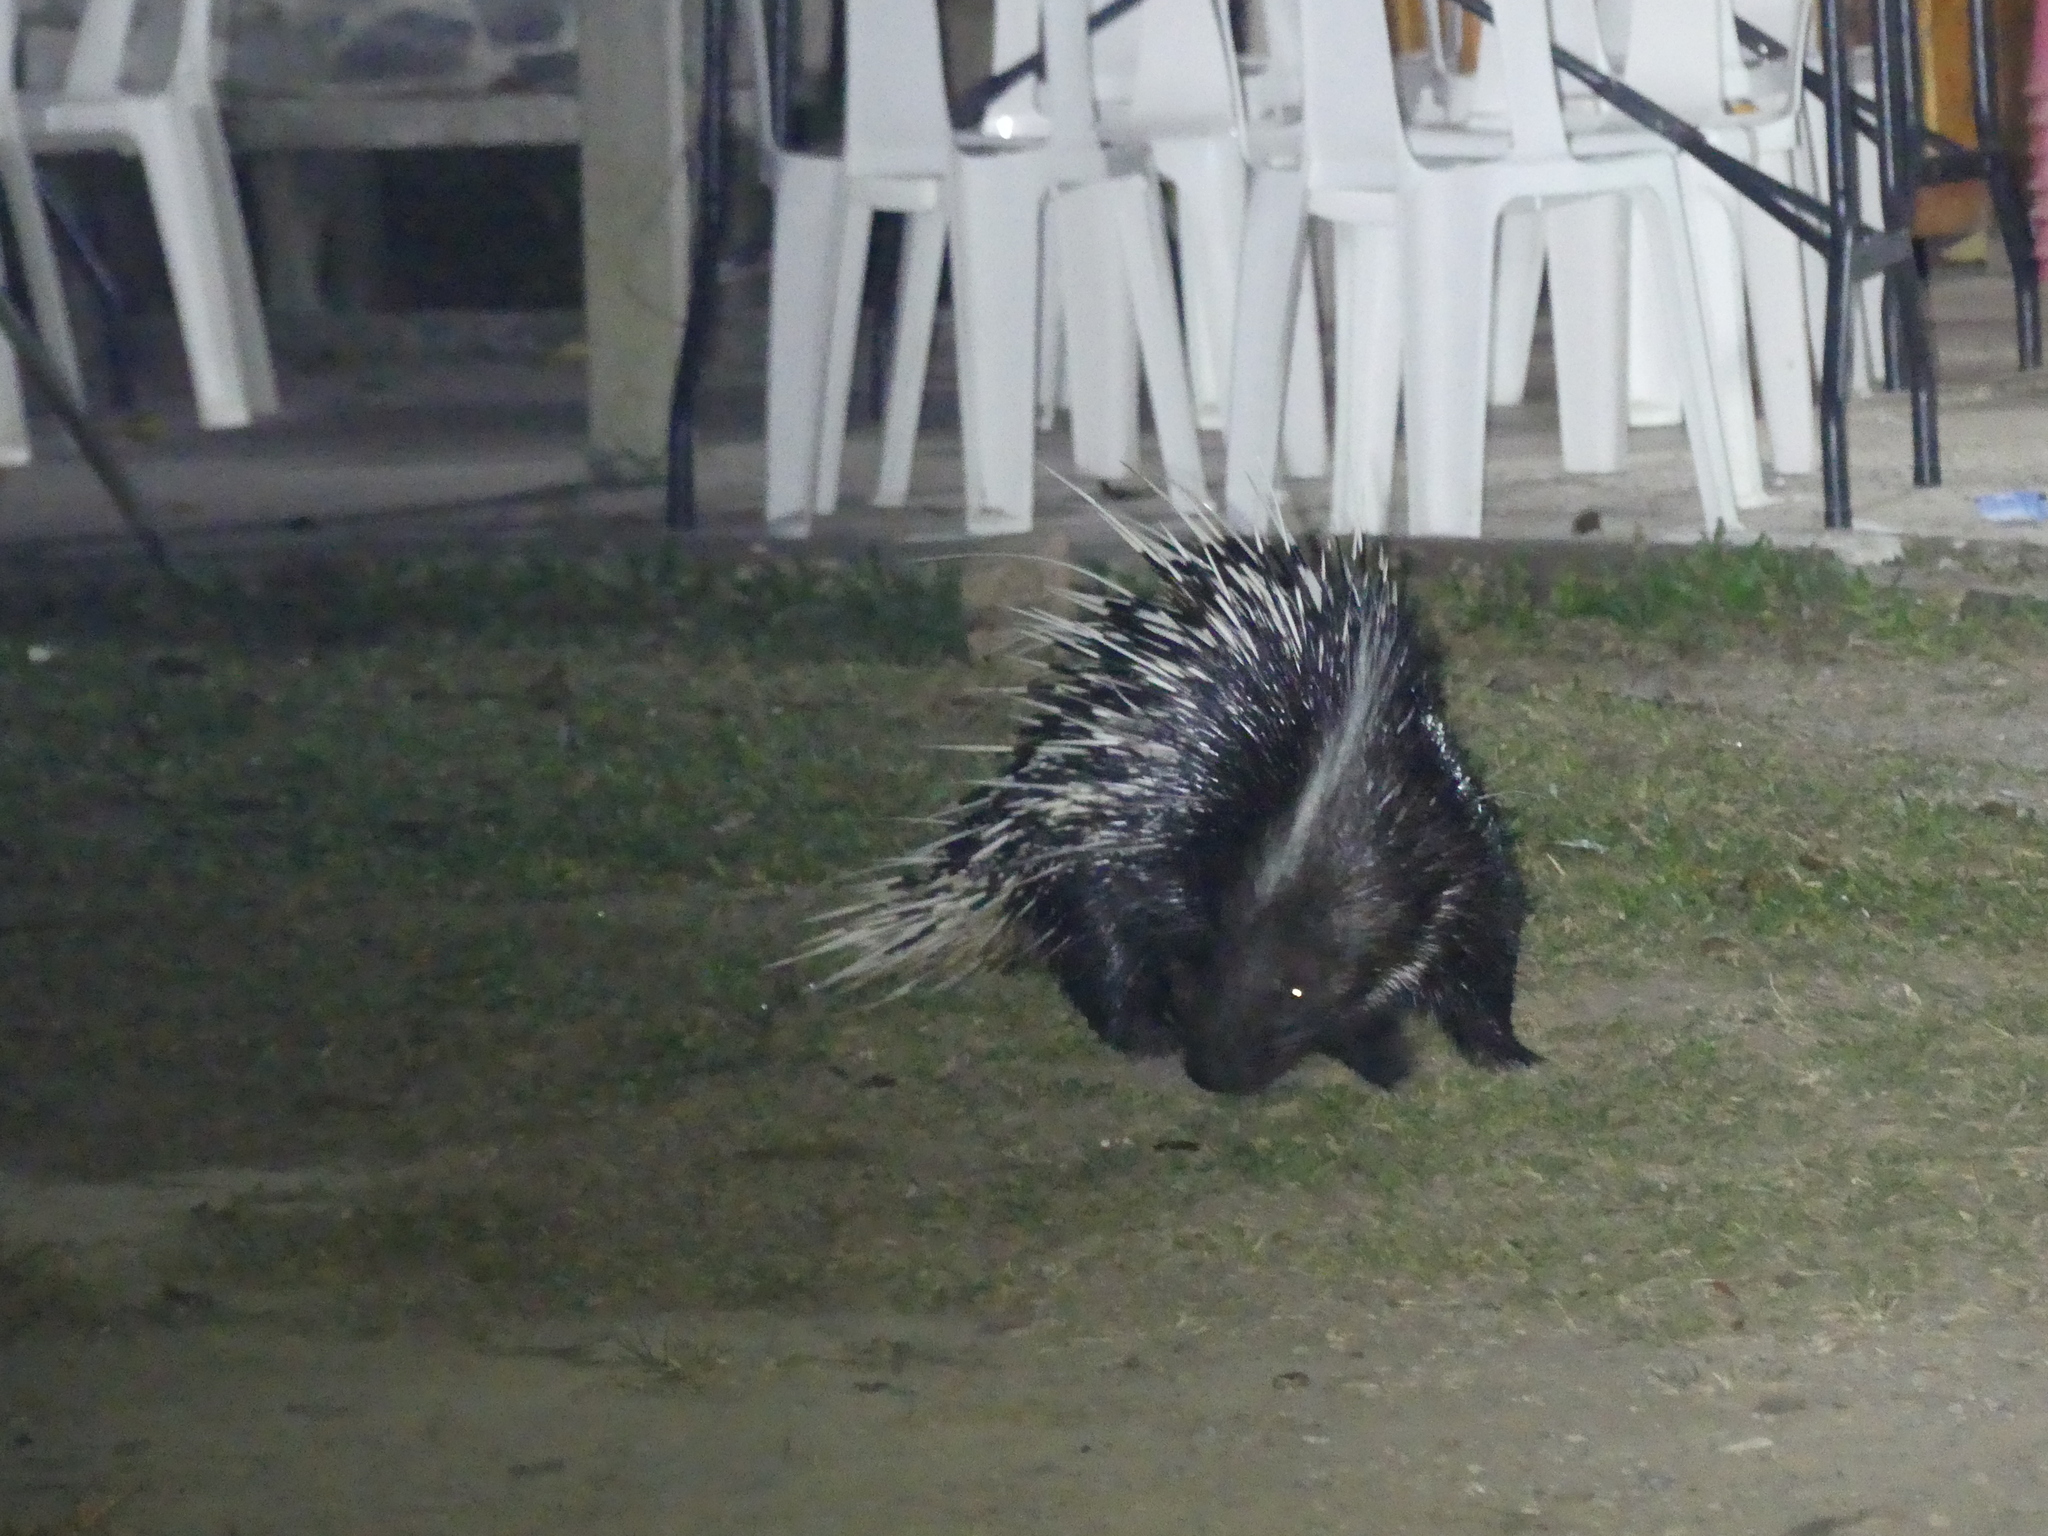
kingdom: Animalia
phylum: Chordata
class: Mammalia
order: Rodentia
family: Hystricidae
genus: Hystrix
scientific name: Hystrix brachyura
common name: Malayan porcupine
